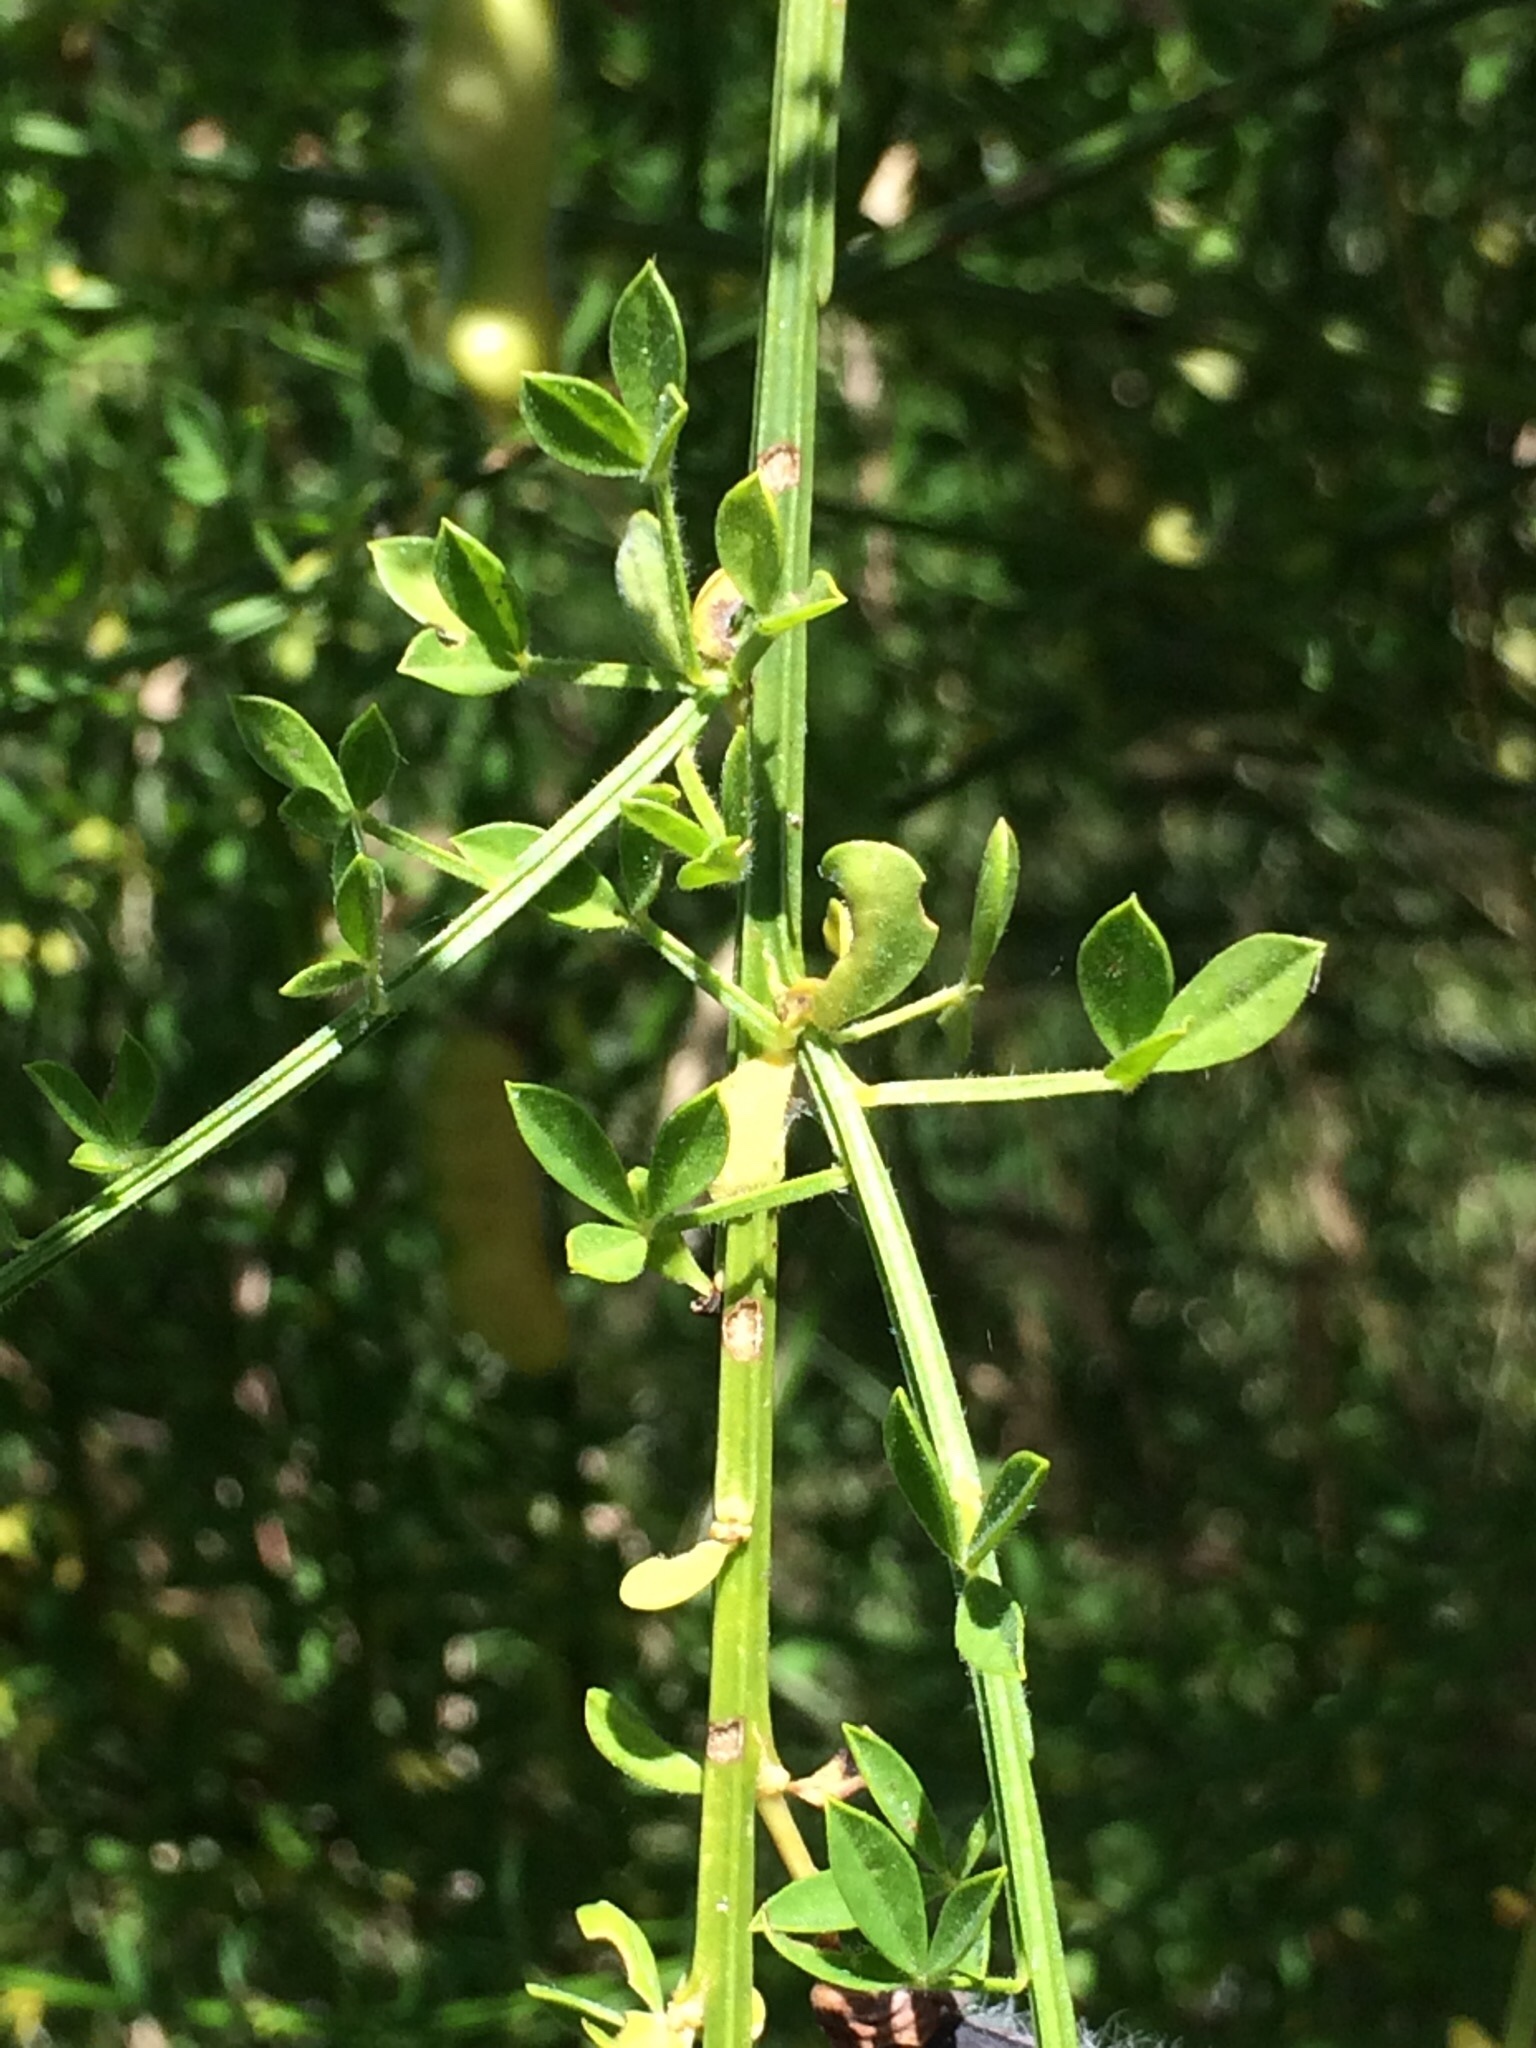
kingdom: Plantae
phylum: Tracheophyta
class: Magnoliopsida
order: Fabales
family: Fabaceae
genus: Cytisus
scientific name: Cytisus scoparius
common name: Scotch broom
